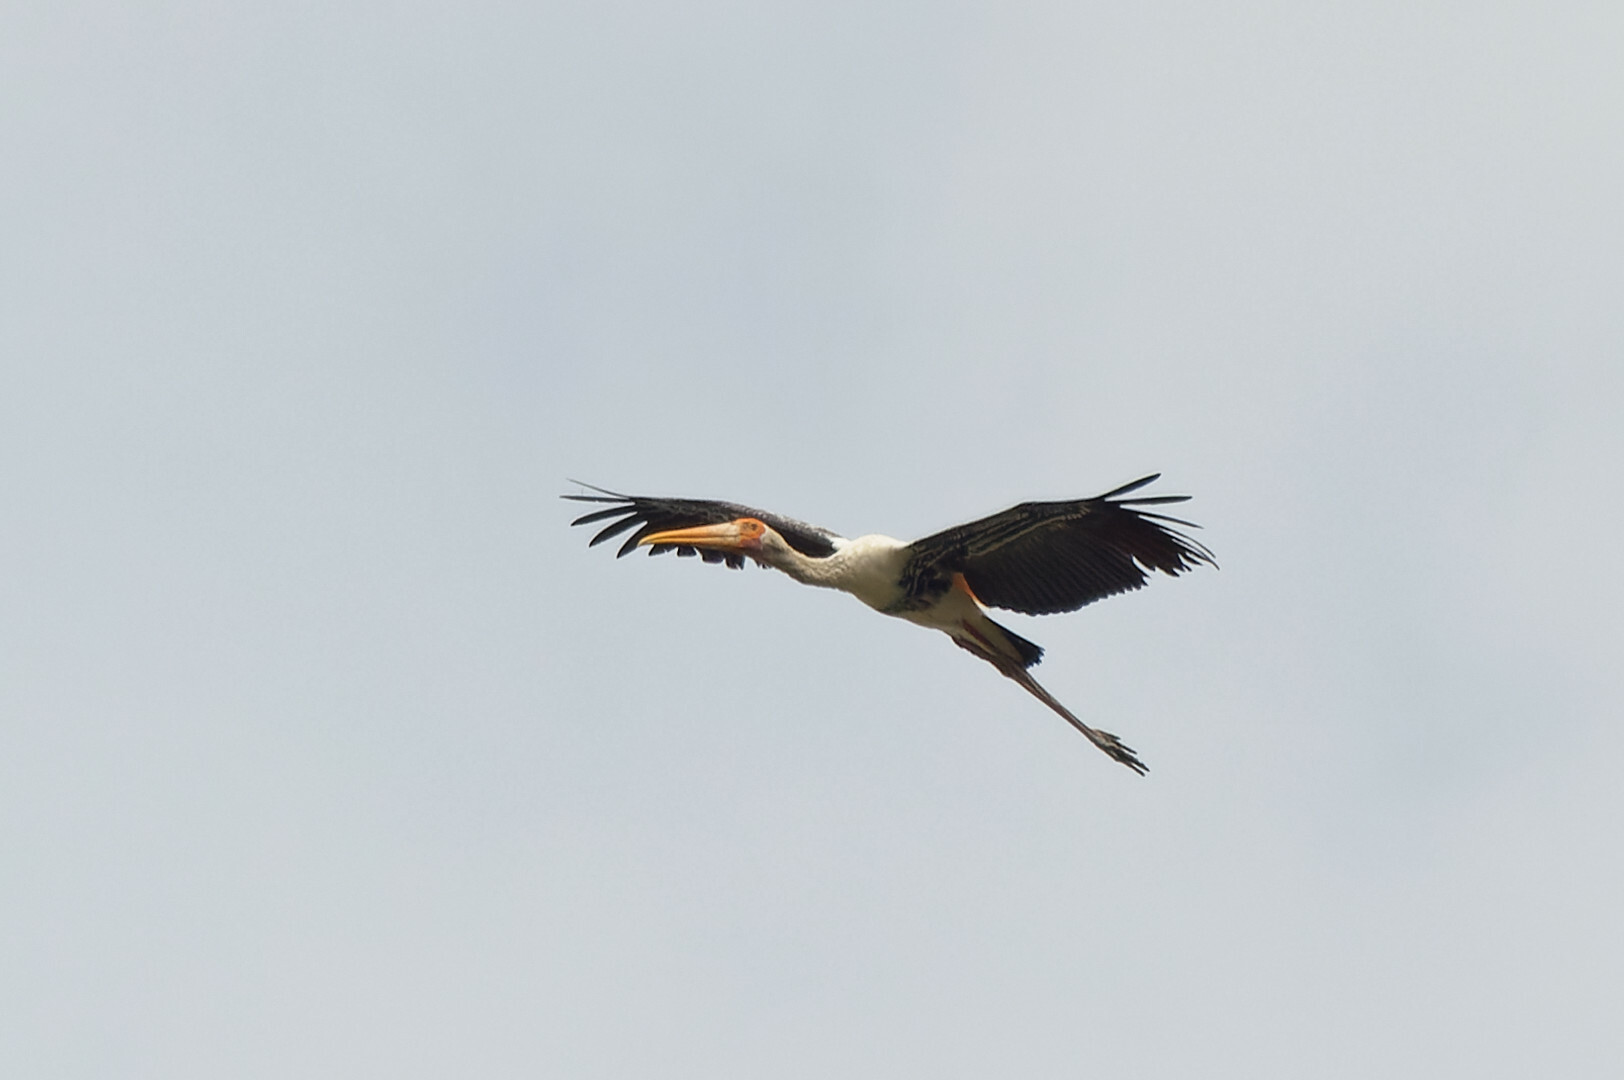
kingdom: Animalia
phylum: Chordata
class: Aves
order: Ciconiiformes
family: Ciconiidae
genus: Mycteria
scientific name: Mycteria leucocephala
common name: Painted stork
